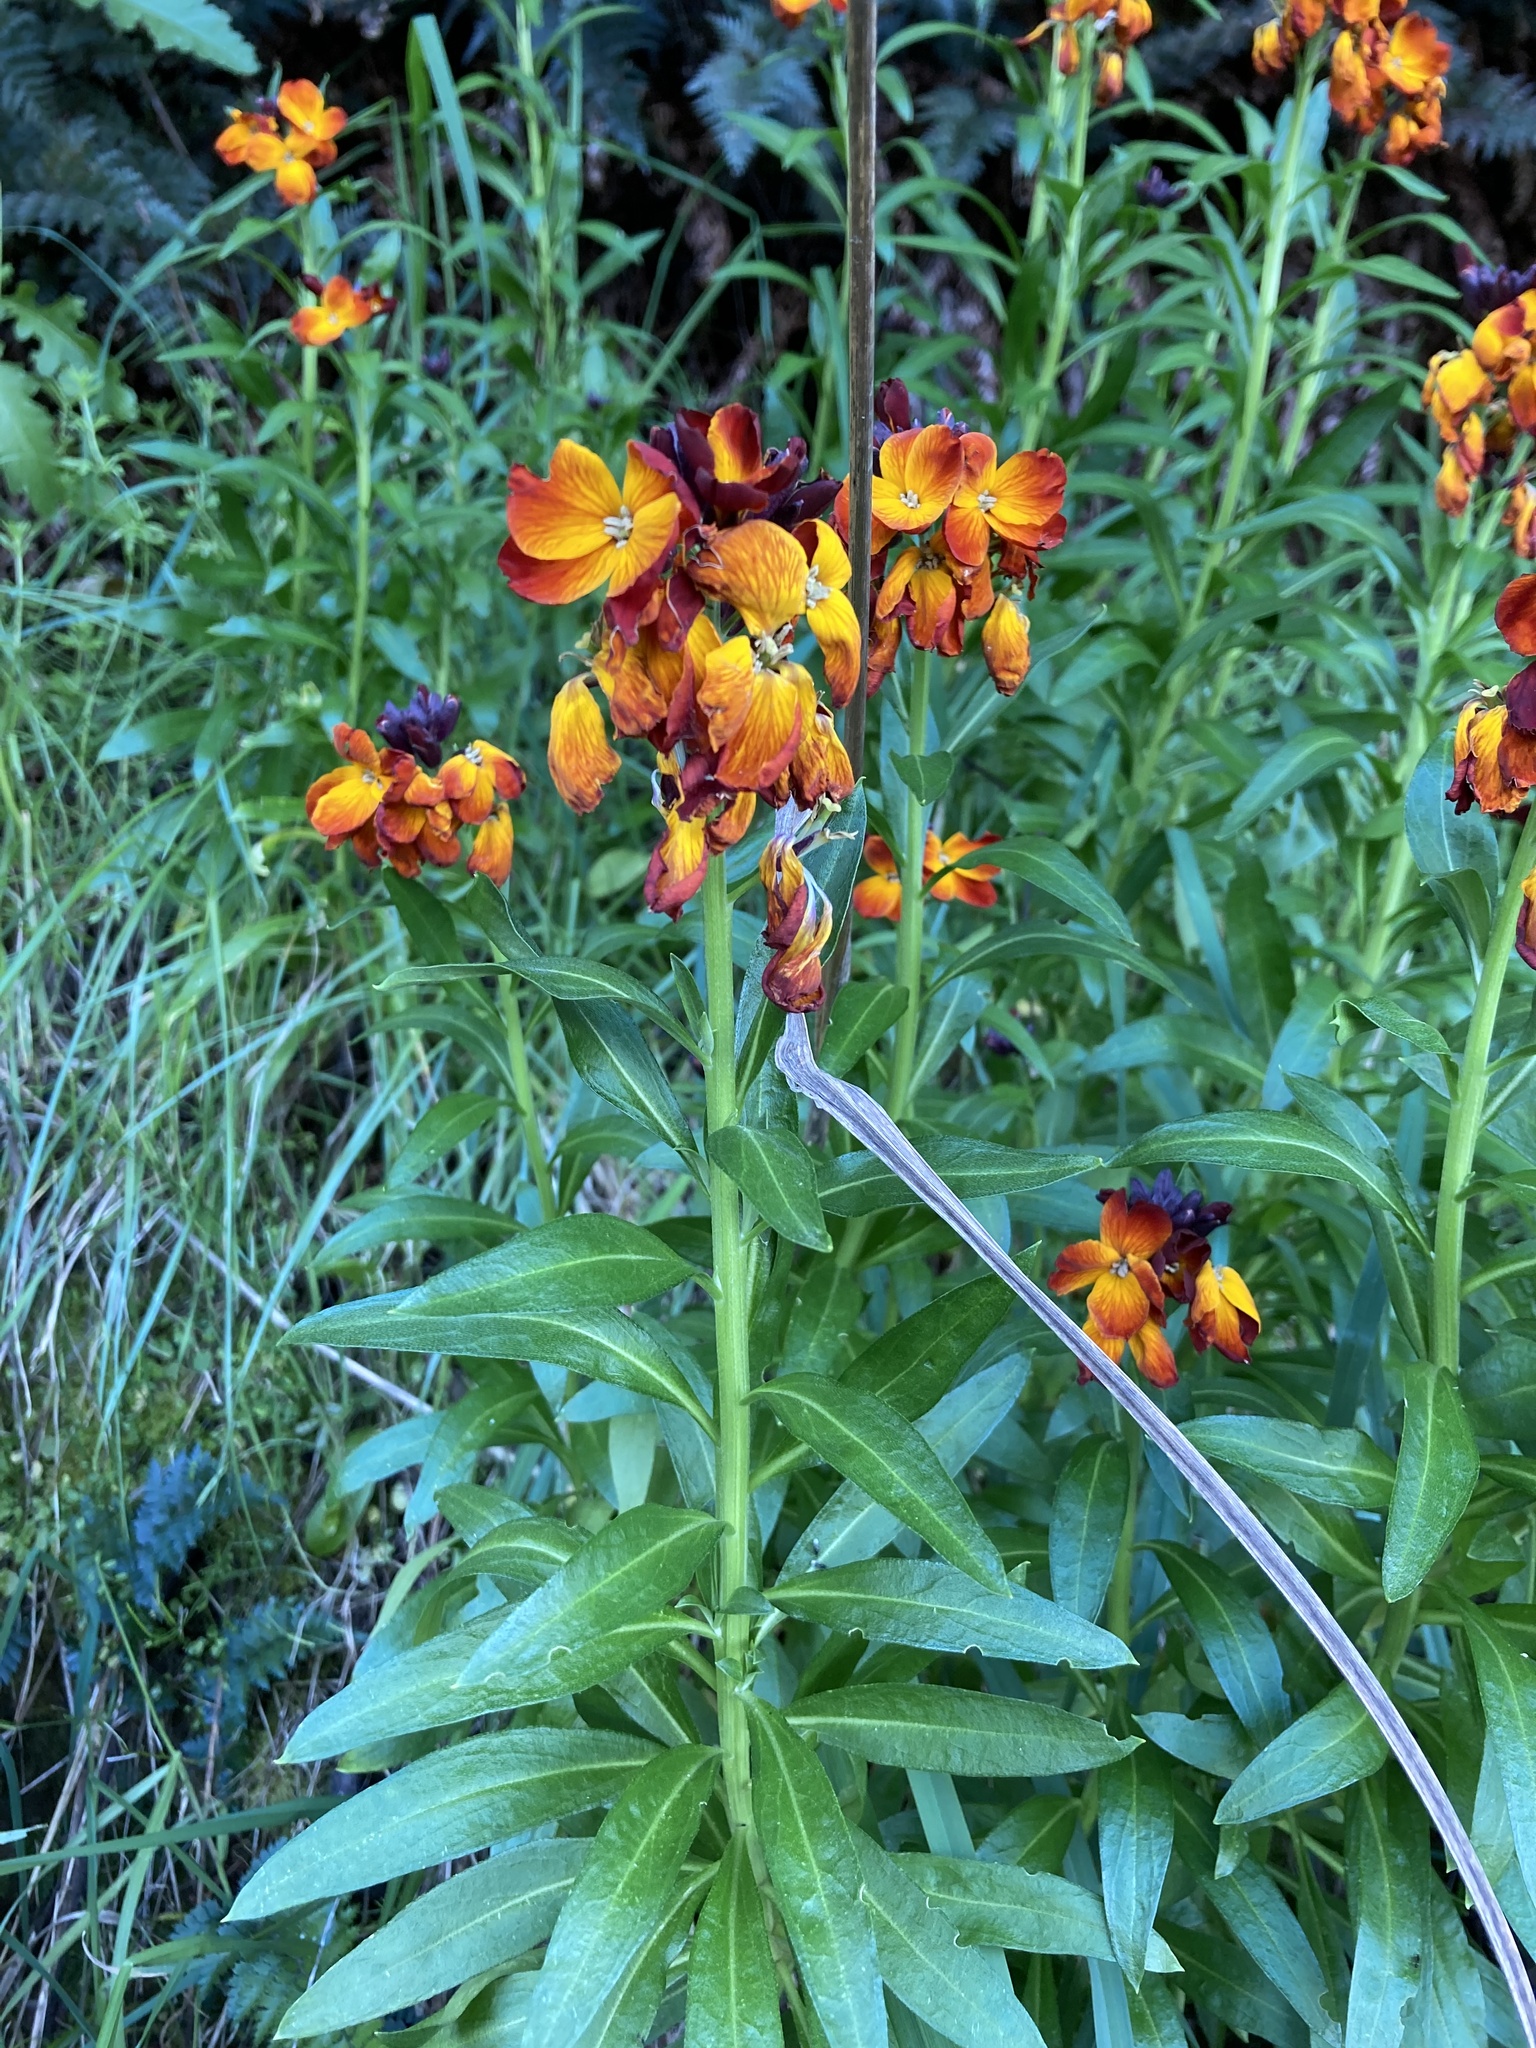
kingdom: Plantae
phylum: Tracheophyta
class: Magnoliopsida
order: Brassicales
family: Brassicaceae
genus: Erysimum
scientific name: Erysimum cheiri
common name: Wallflower
